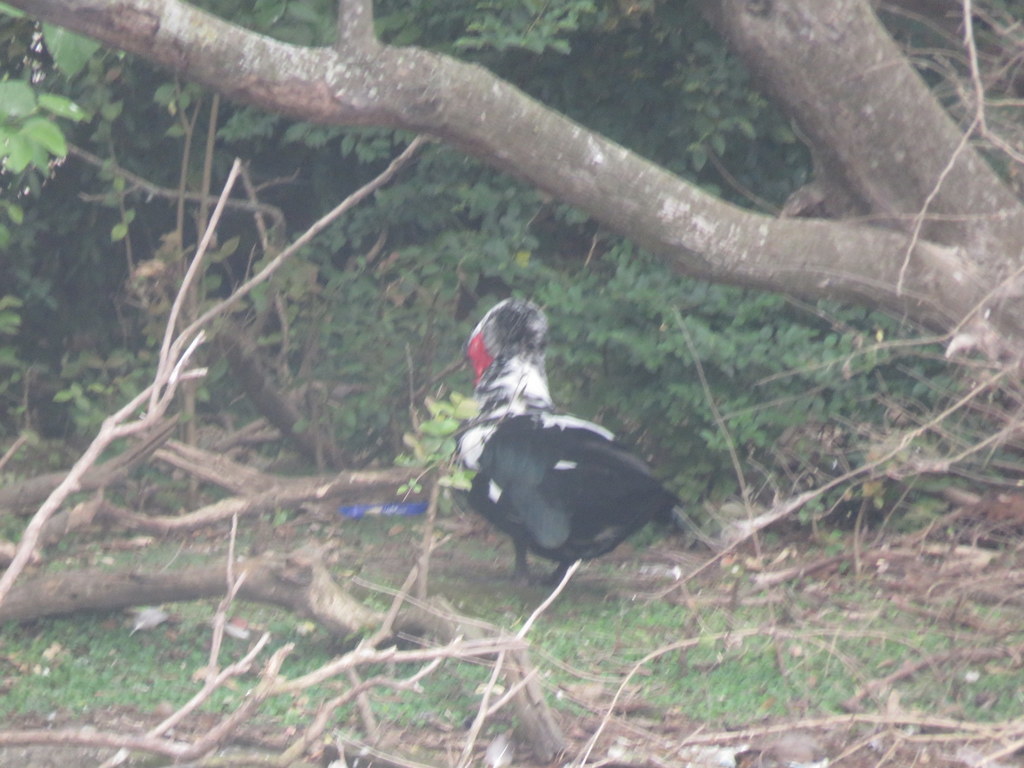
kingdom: Animalia
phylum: Chordata
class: Aves
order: Anseriformes
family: Anatidae
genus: Cairina
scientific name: Cairina moschata
